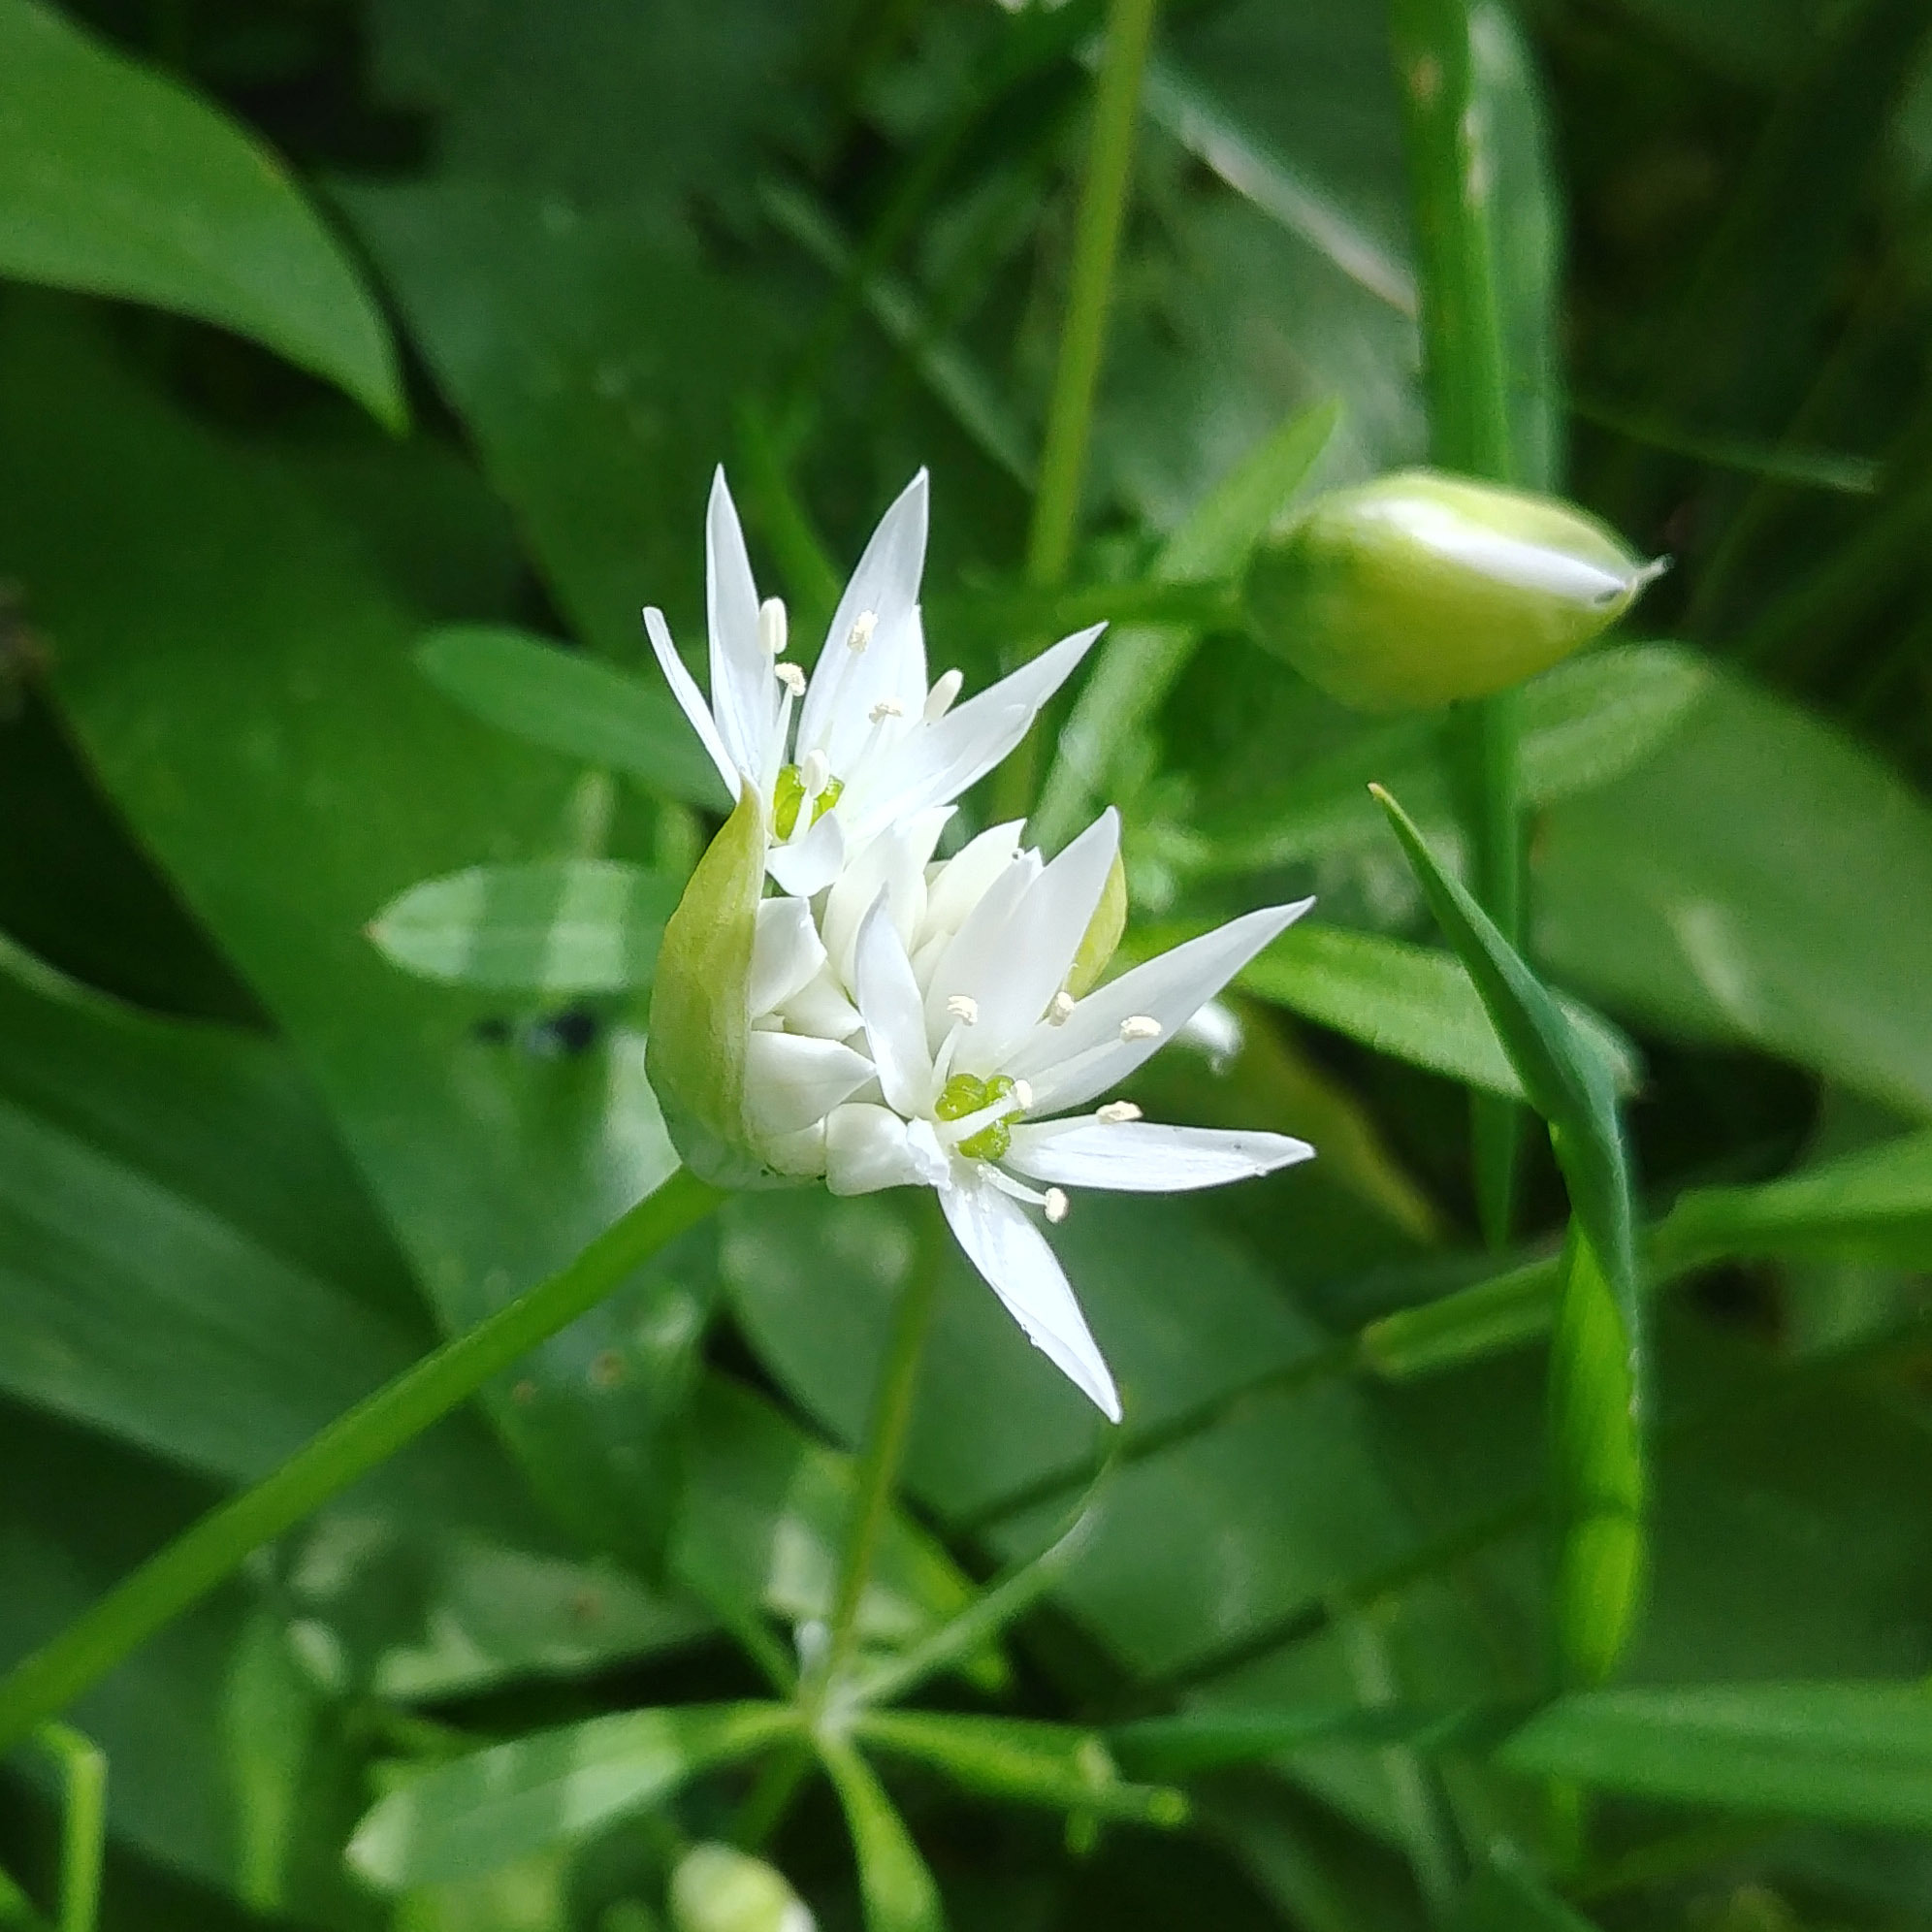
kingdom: Plantae
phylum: Tracheophyta
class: Liliopsida
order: Asparagales
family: Amaryllidaceae
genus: Allium
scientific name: Allium ursinum
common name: Ramsons
